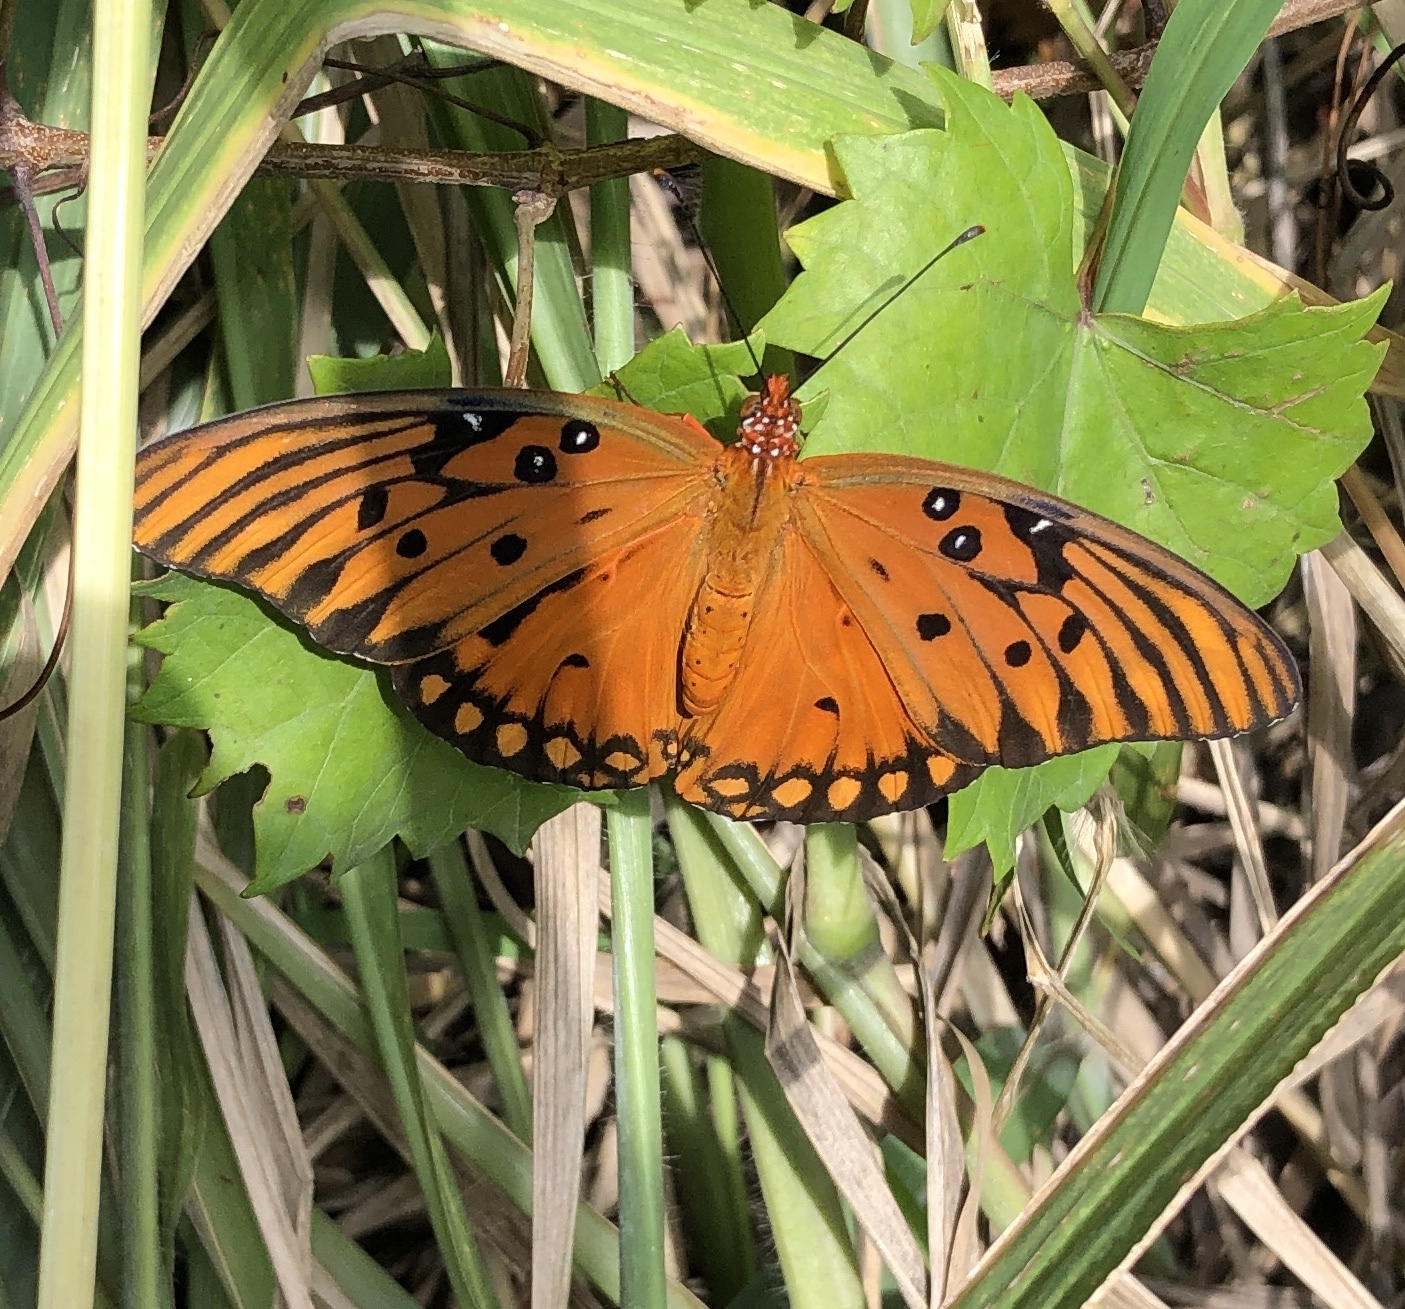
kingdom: Animalia
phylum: Arthropoda
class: Insecta
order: Lepidoptera
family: Nymphalidae
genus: Dione
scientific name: Dione vanillae
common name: Gulf fritillary
